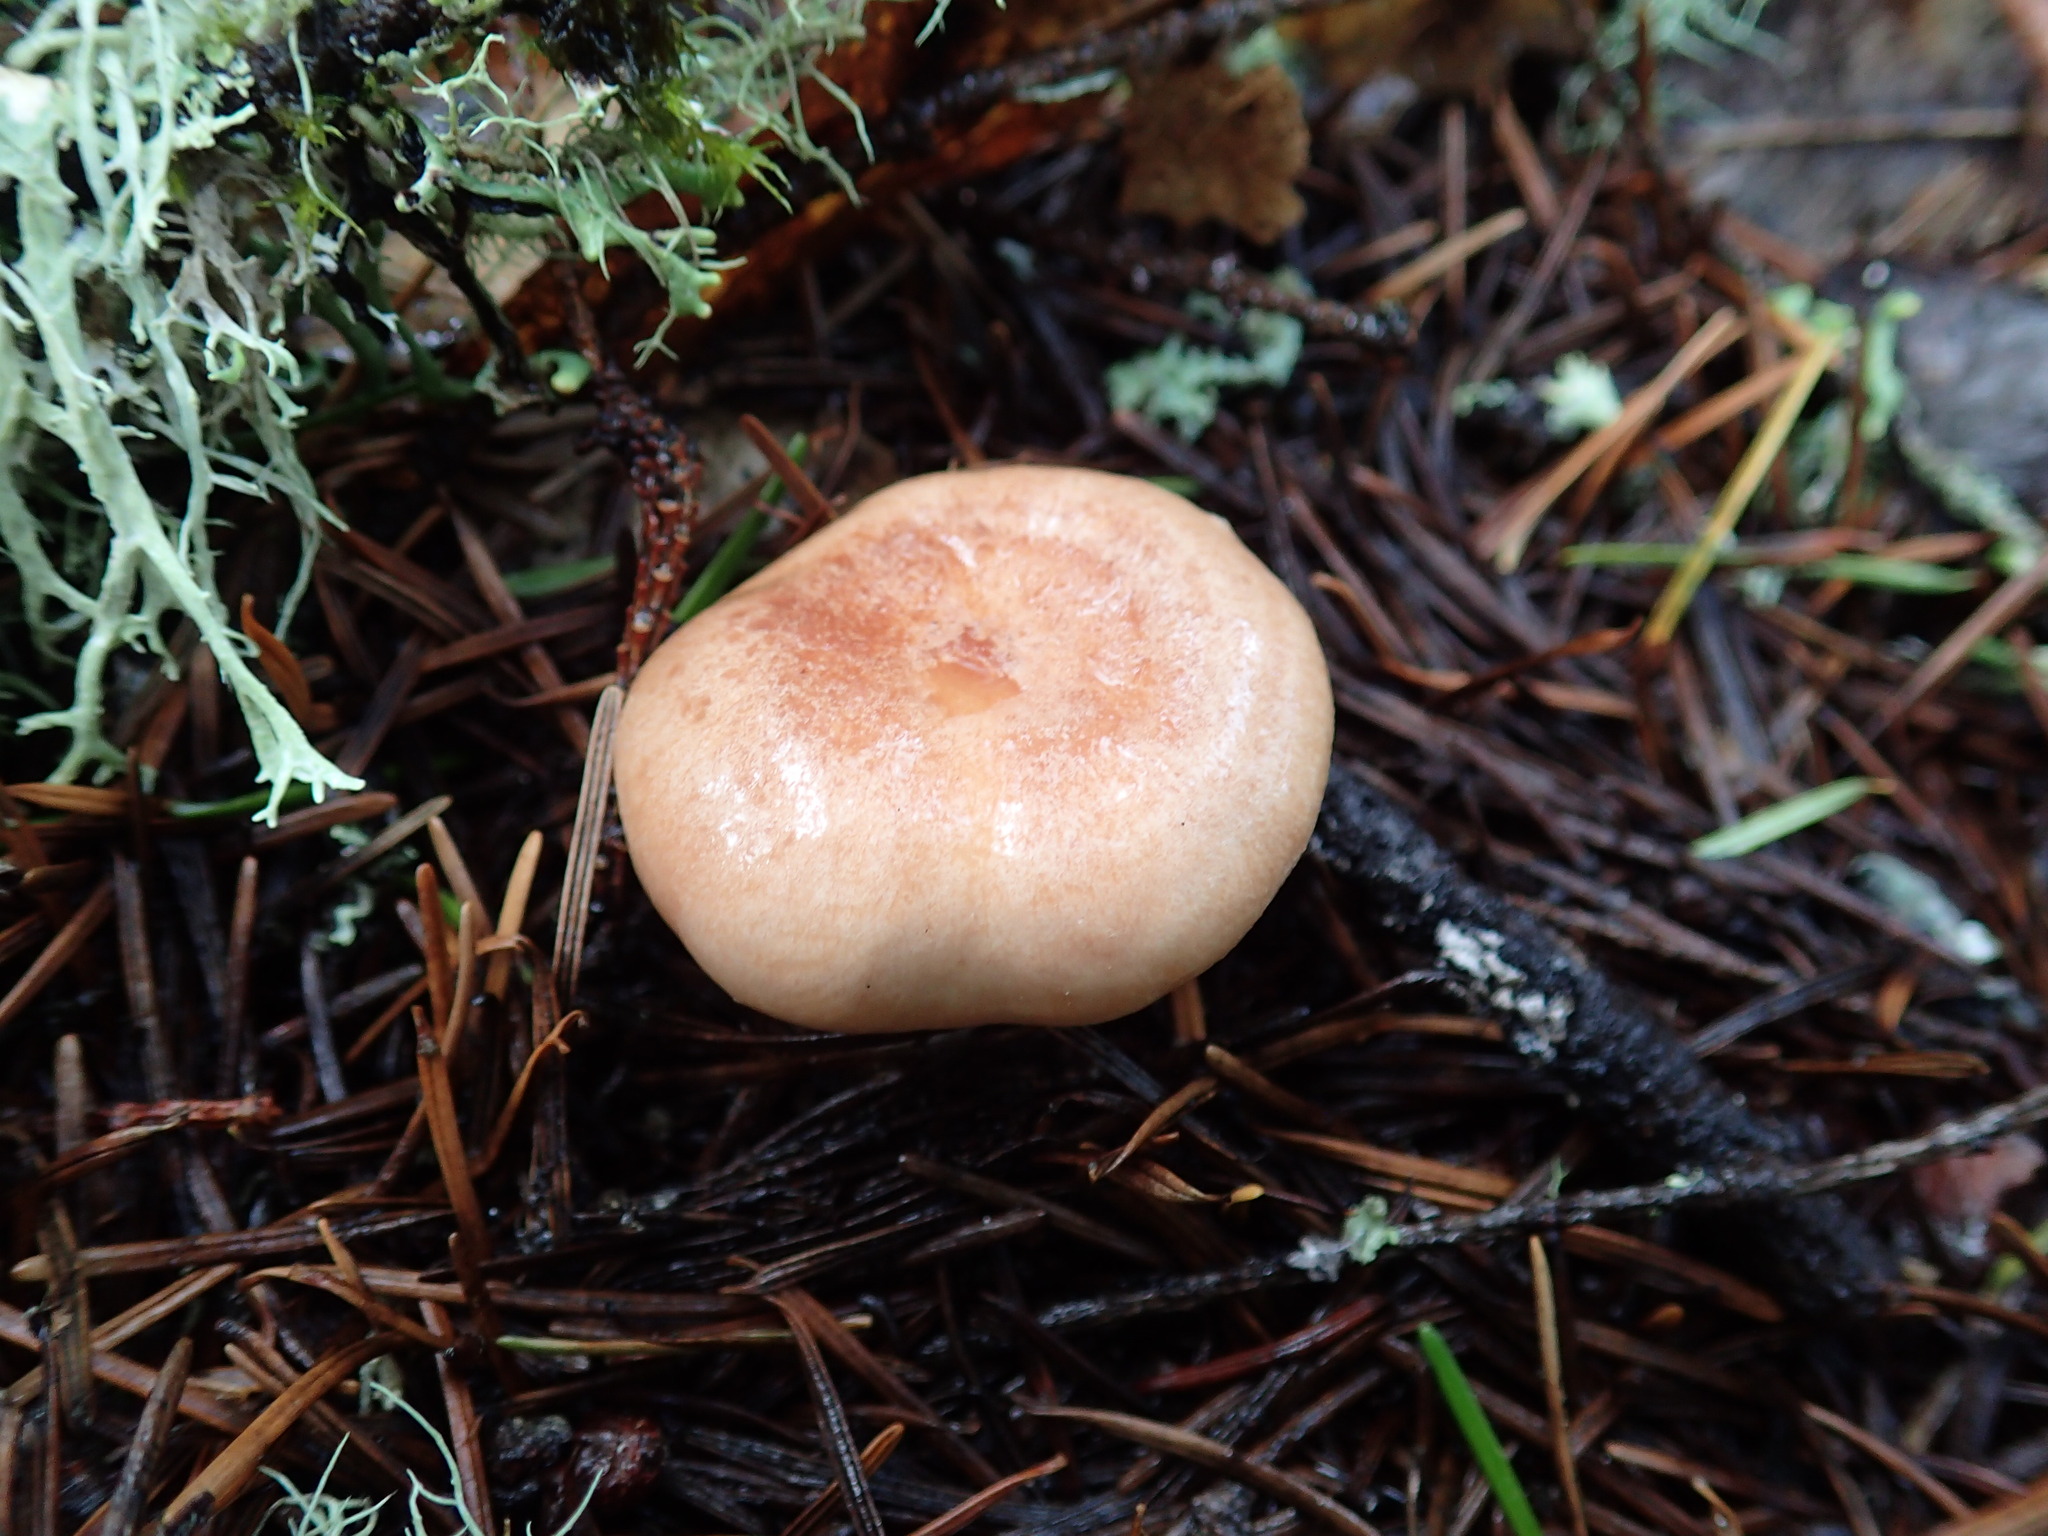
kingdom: Fungi
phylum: Basidiomycota
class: Agaricomycetes
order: Russulales
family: Russulaceae
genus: Lactarius
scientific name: Lactarius xanthogalactus
